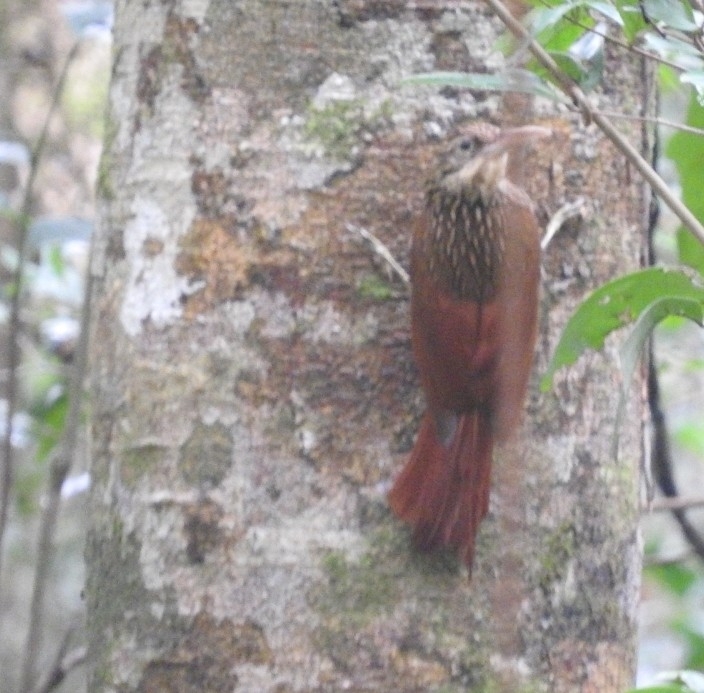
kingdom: Animalia
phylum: Chordata
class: Aves
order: Passeriformes
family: Furnariidae
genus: Xiphorhynchus
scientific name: Xiphorhynchus flavigaster
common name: Ivory-billed woodcreeper
